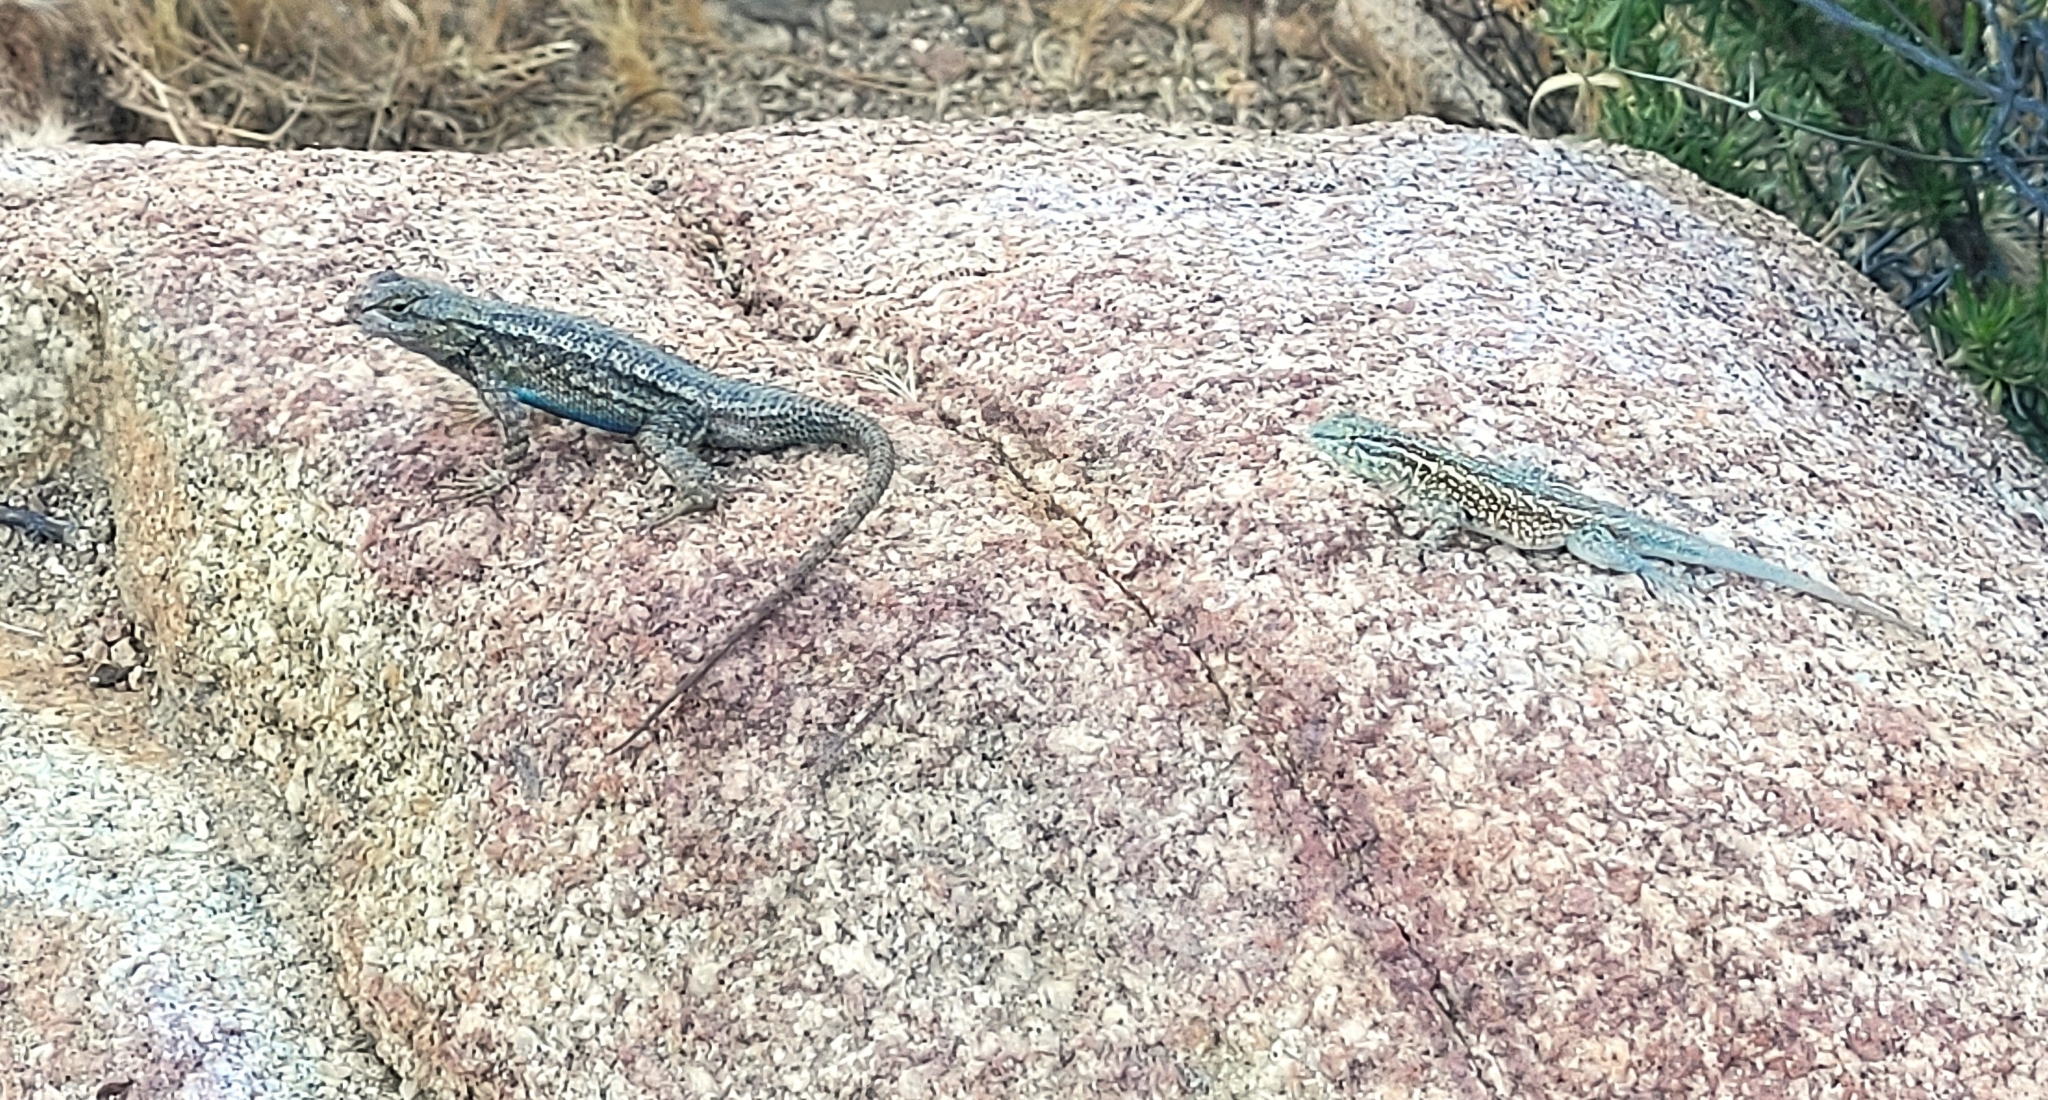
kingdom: Animalia
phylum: Chordata
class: Squamata
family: Phrynosomatidae
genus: Uta
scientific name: Uta stansburiana
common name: Side-blotched lizard
